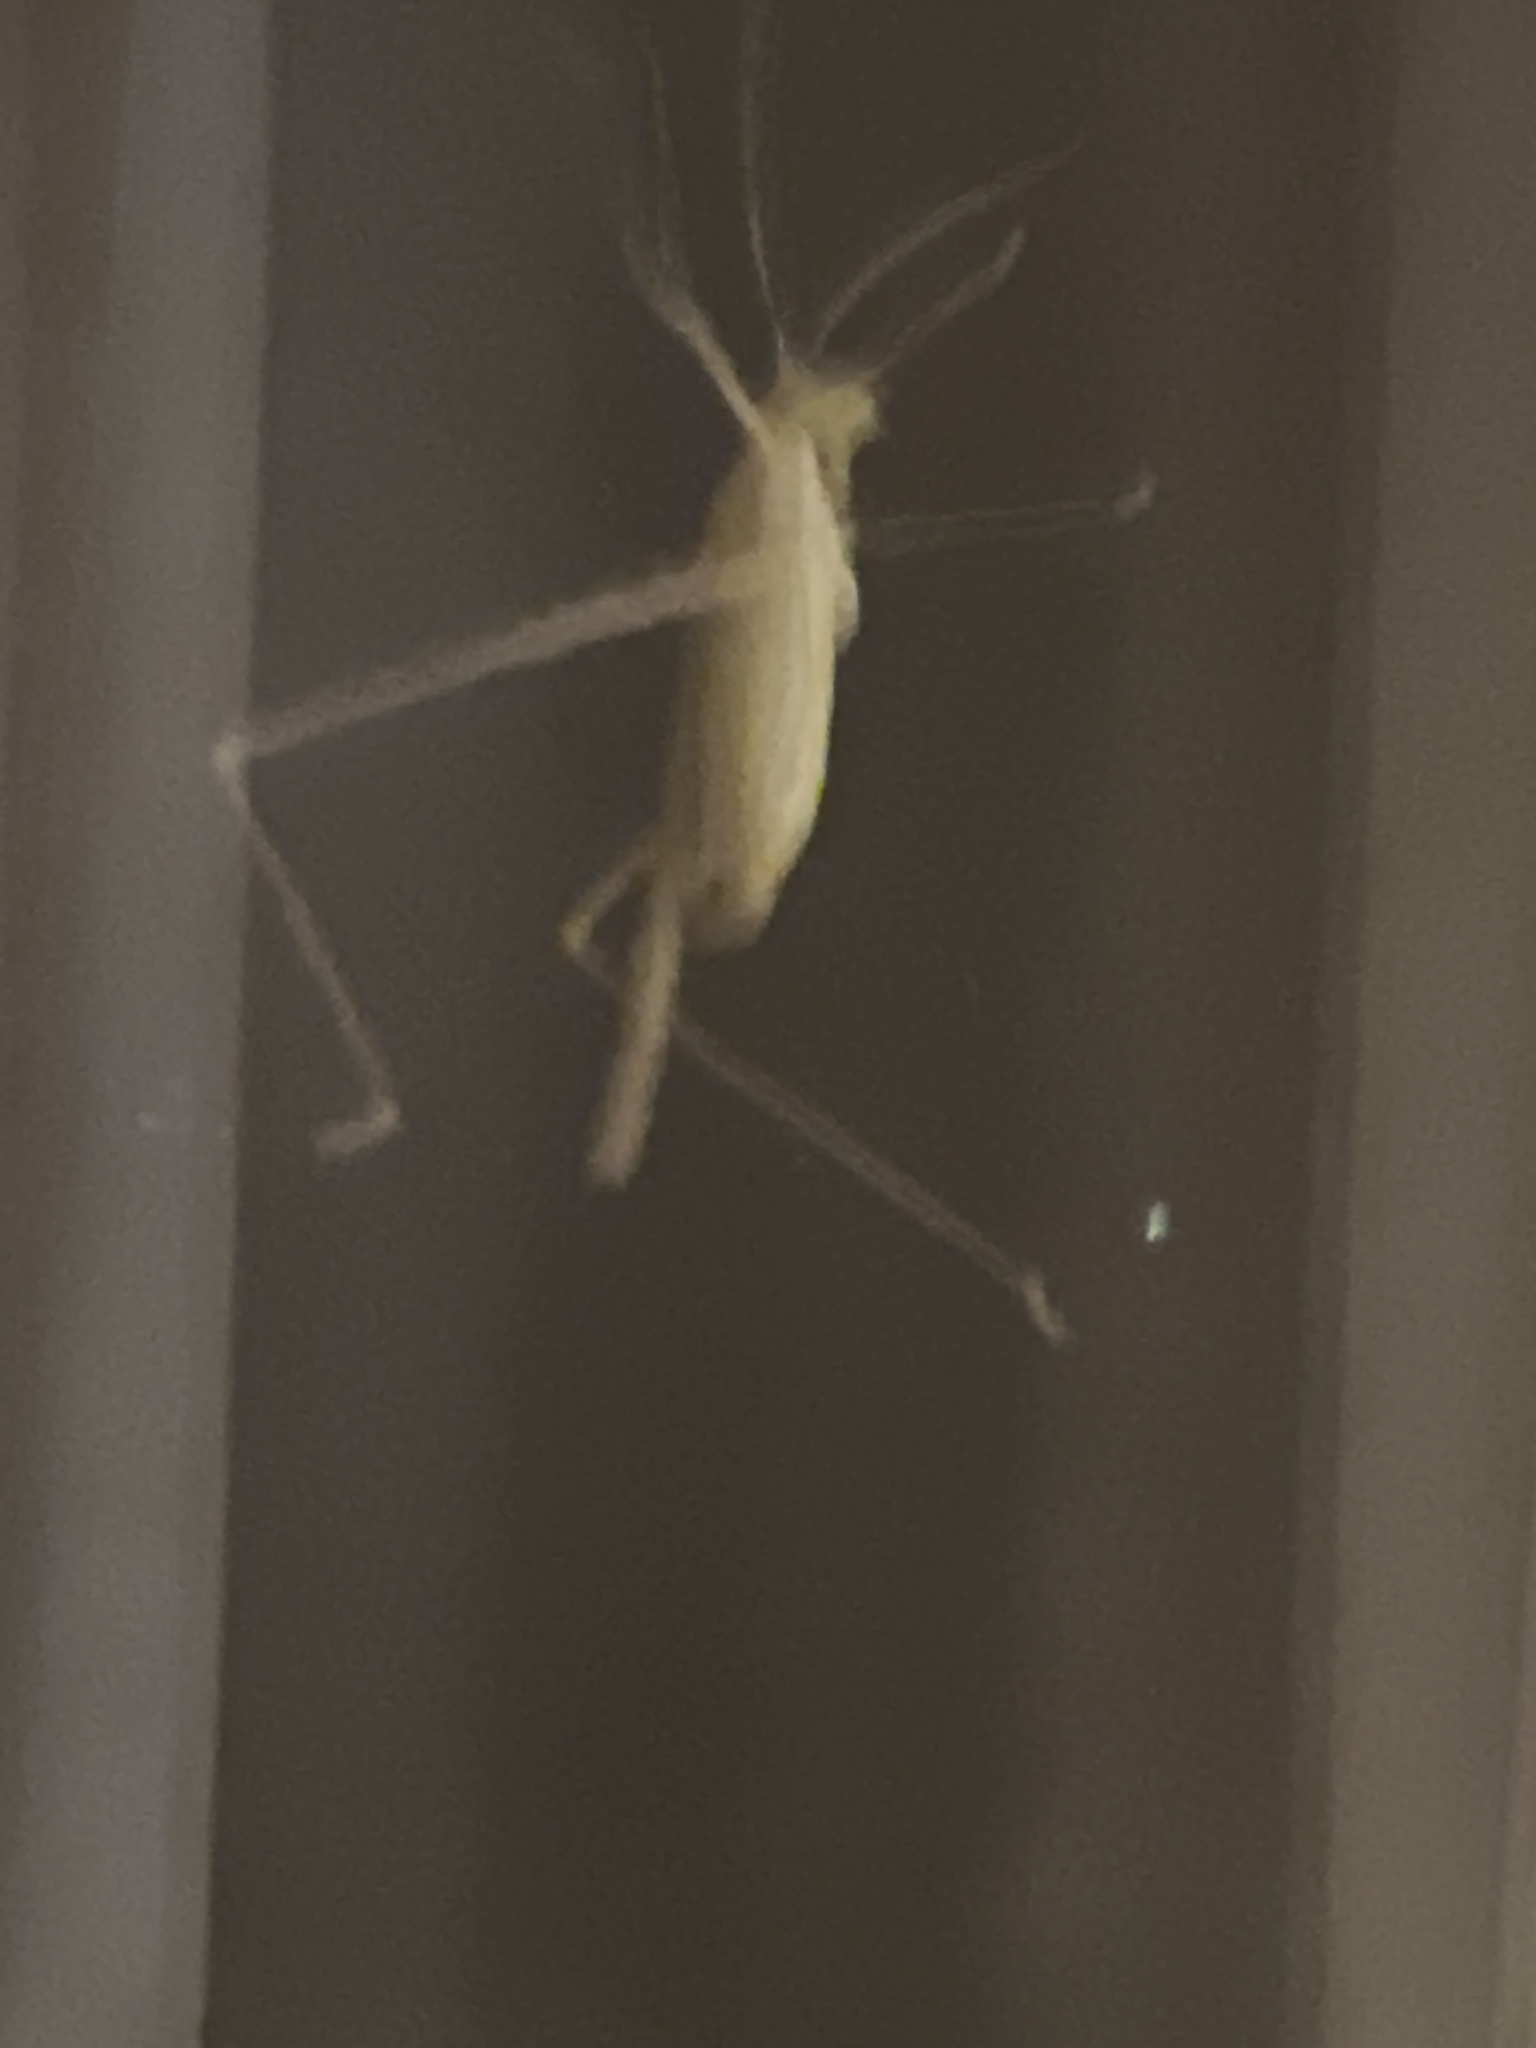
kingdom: Animalia
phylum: Arthropoda
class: Insecta
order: Orthoptera
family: Tettigoniidae
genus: Tylopsis
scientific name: Tylopsis lilifolia
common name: Lily bush-cricket
